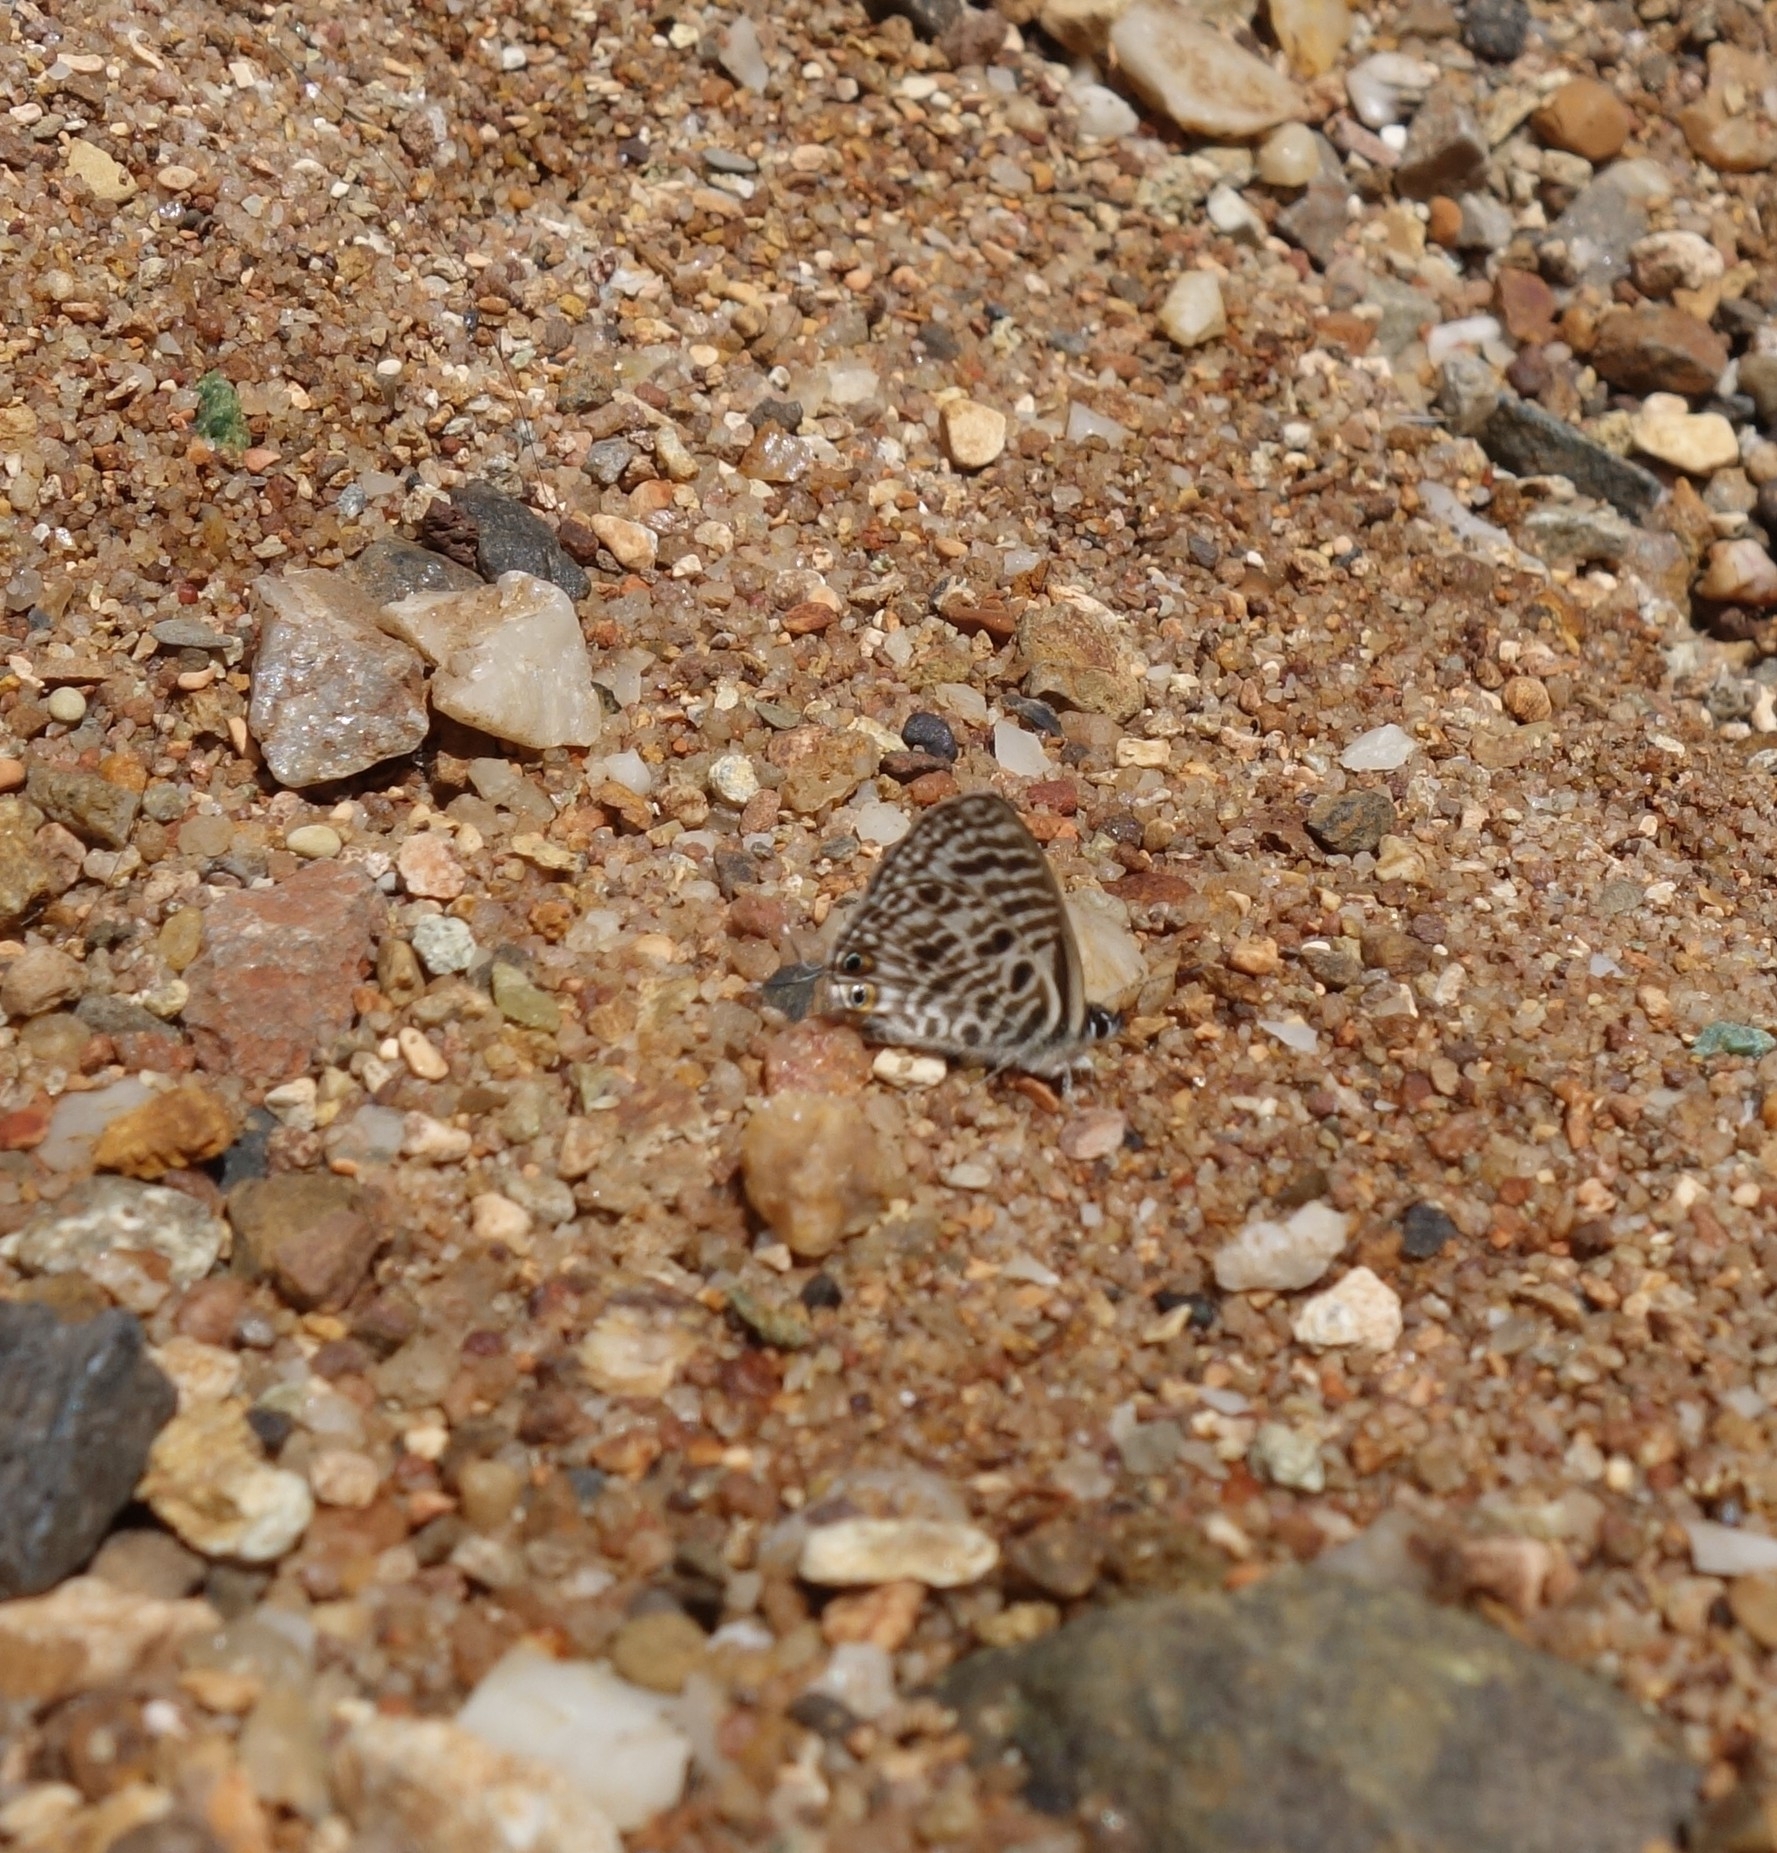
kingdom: Animalia
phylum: Arthropoda
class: Insecta
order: Lepidoptera
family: Lycaenidae
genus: Leptotes
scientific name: Leptotes
